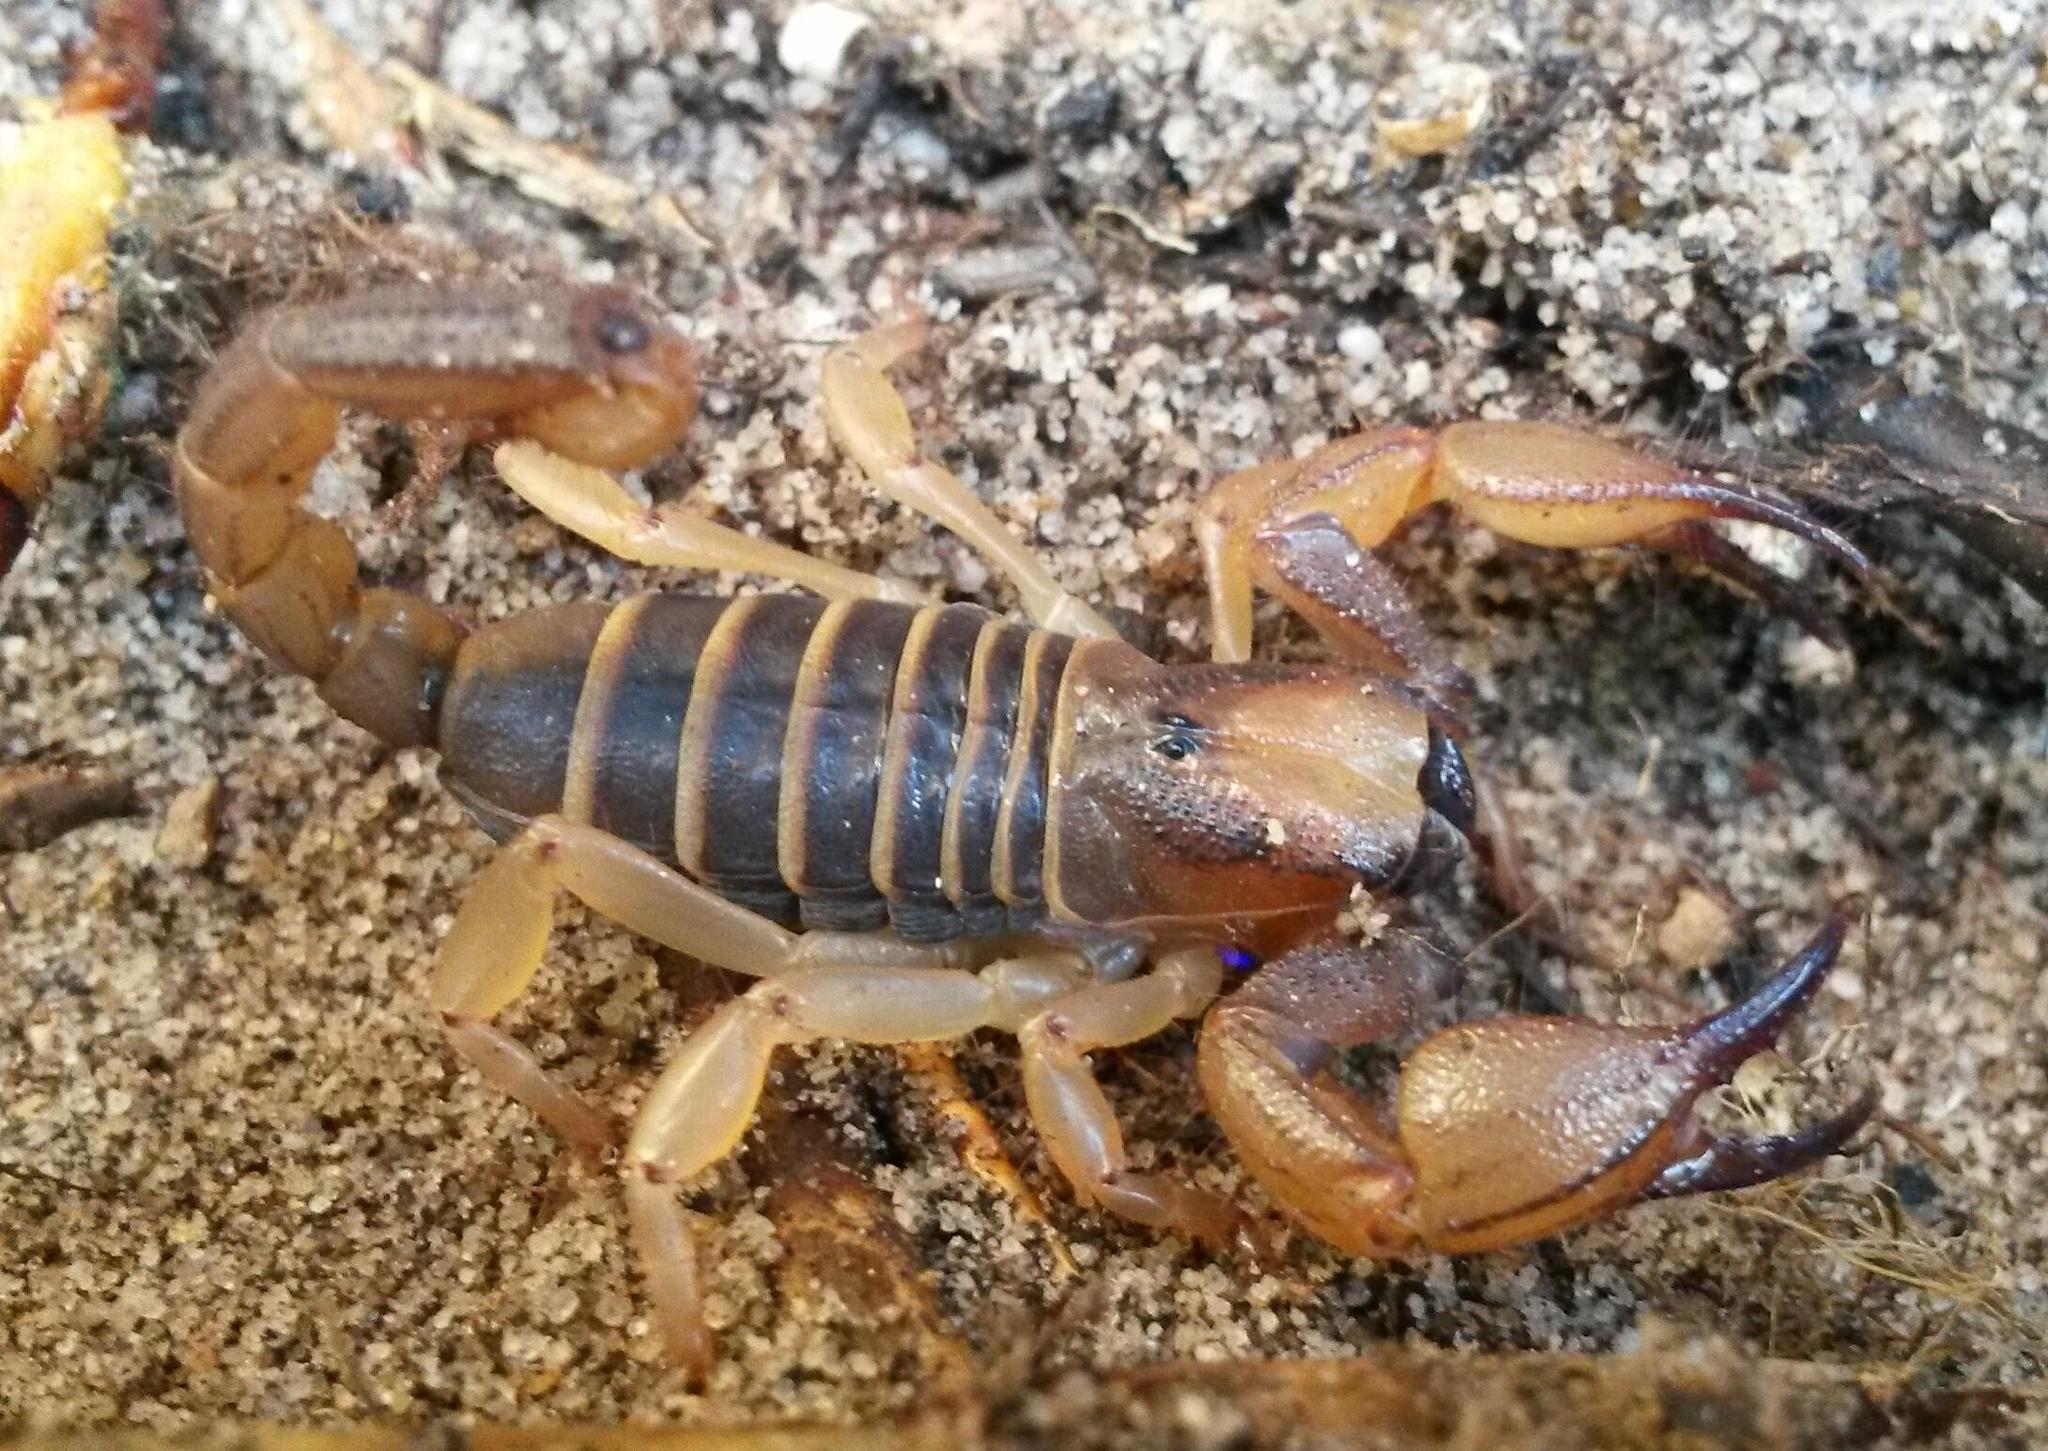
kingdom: Animalia
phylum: Arthropoda
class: Arachnida
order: Scorpiones
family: Scorpionidae
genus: Opistophthalmus
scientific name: Opistophthalmus capensis
